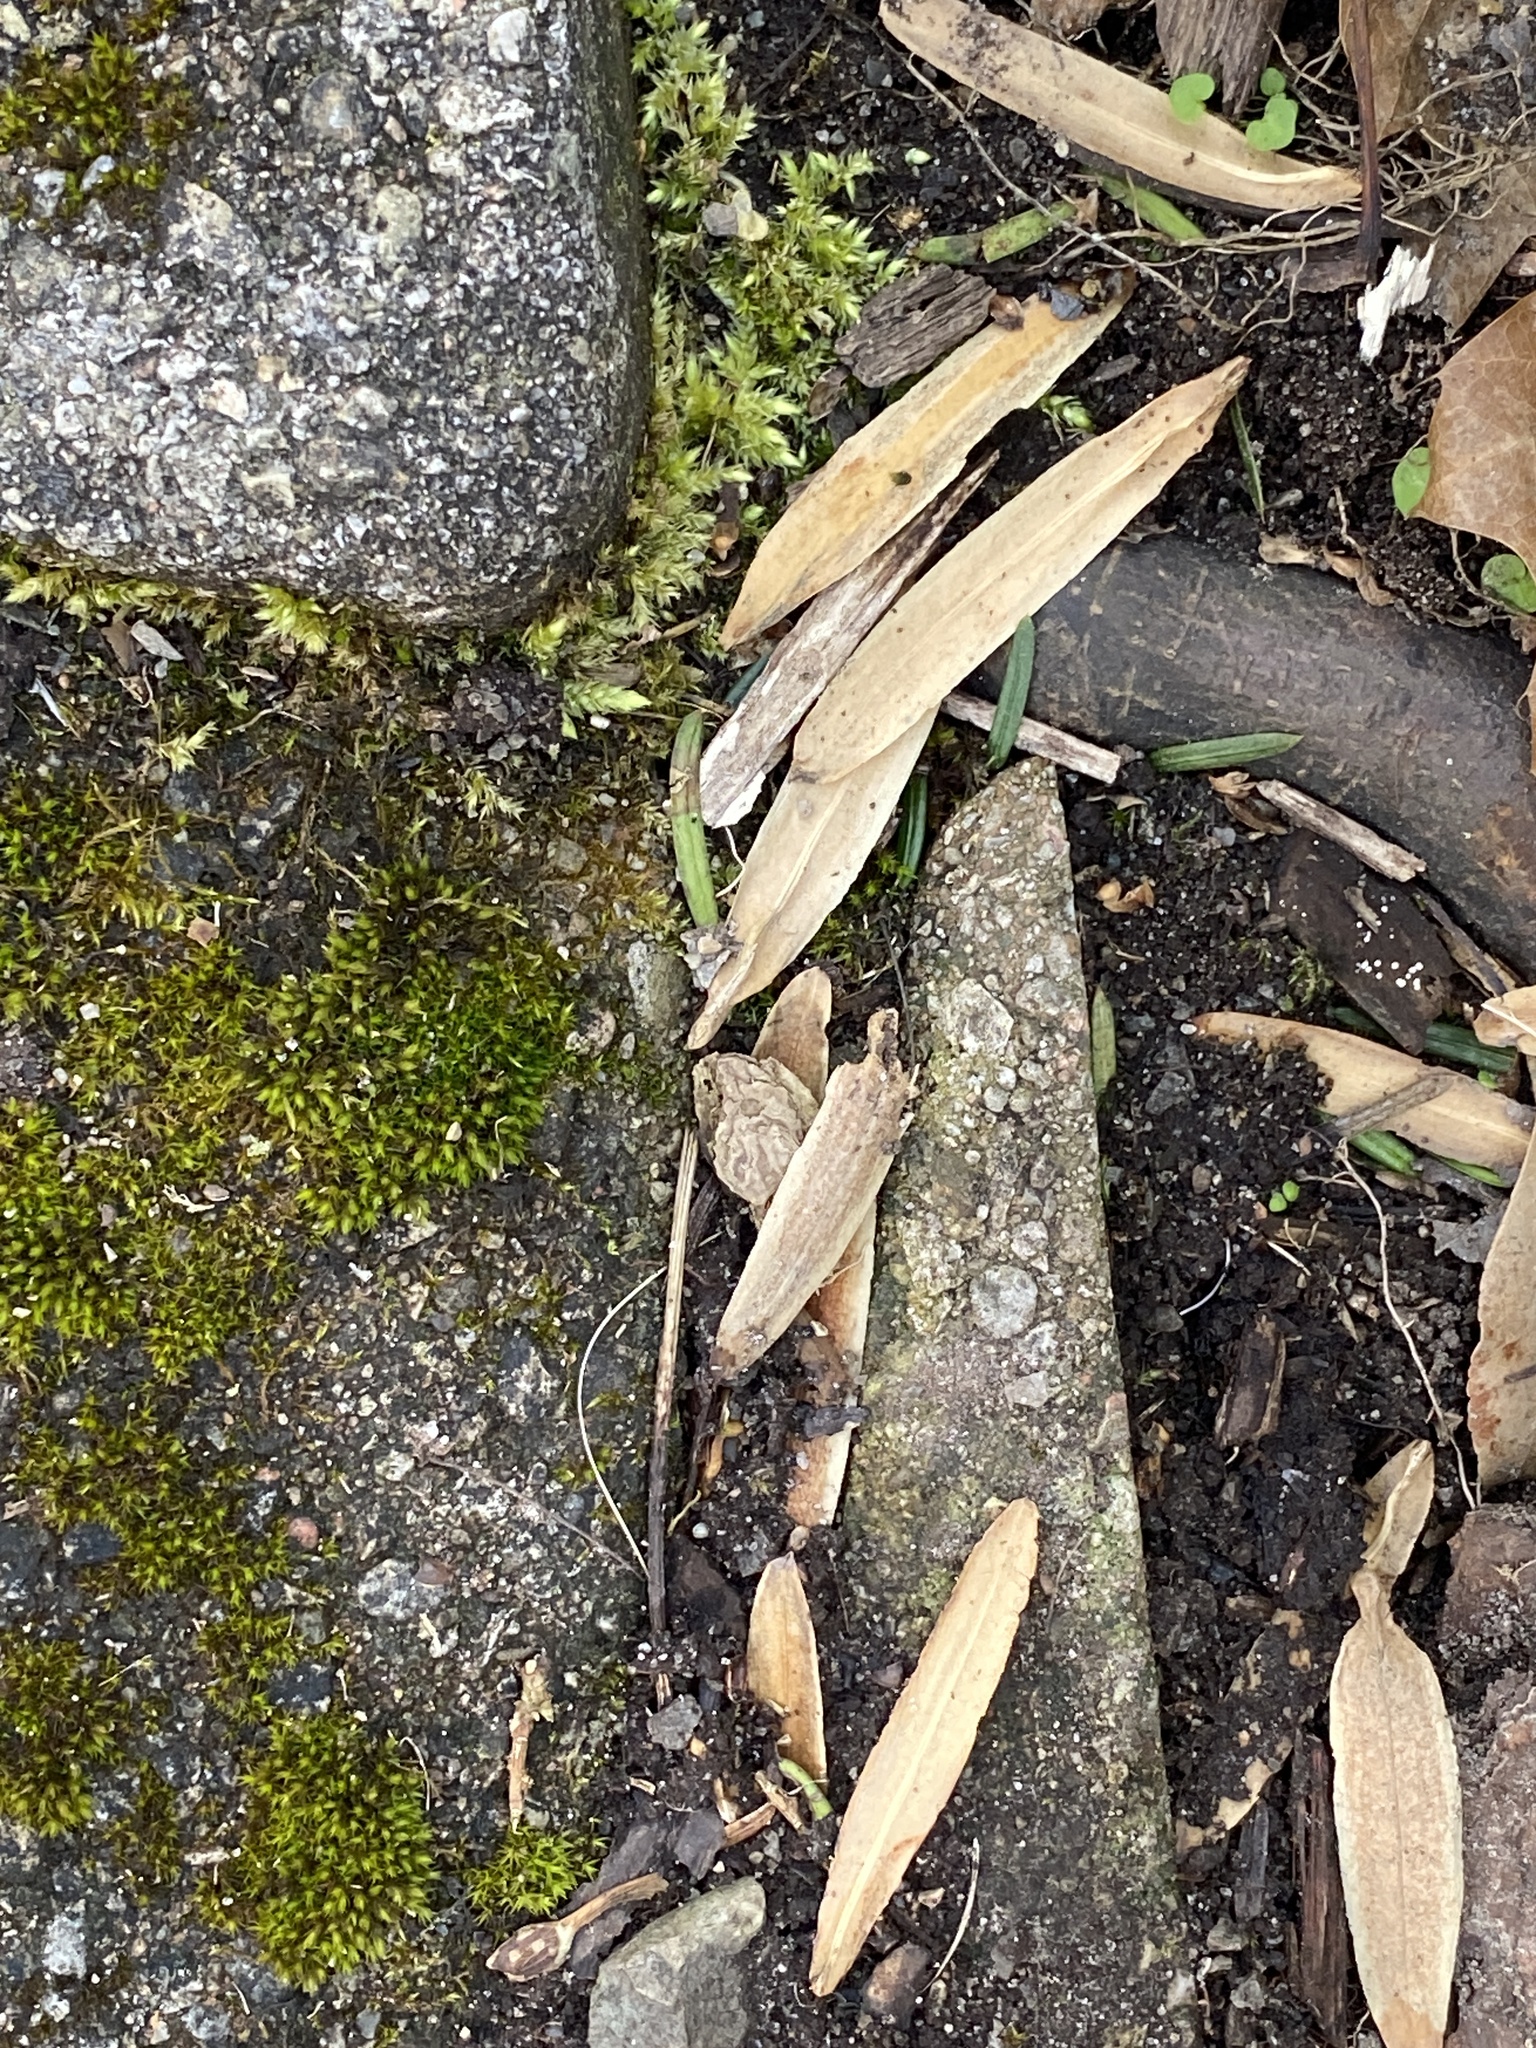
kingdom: Plantae
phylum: Tracheophyta
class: Magnoliopsida
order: Magnoliales
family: Magnoliaceae
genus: Liriodendron
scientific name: Liriodendron tulipifera
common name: Tulip tree
